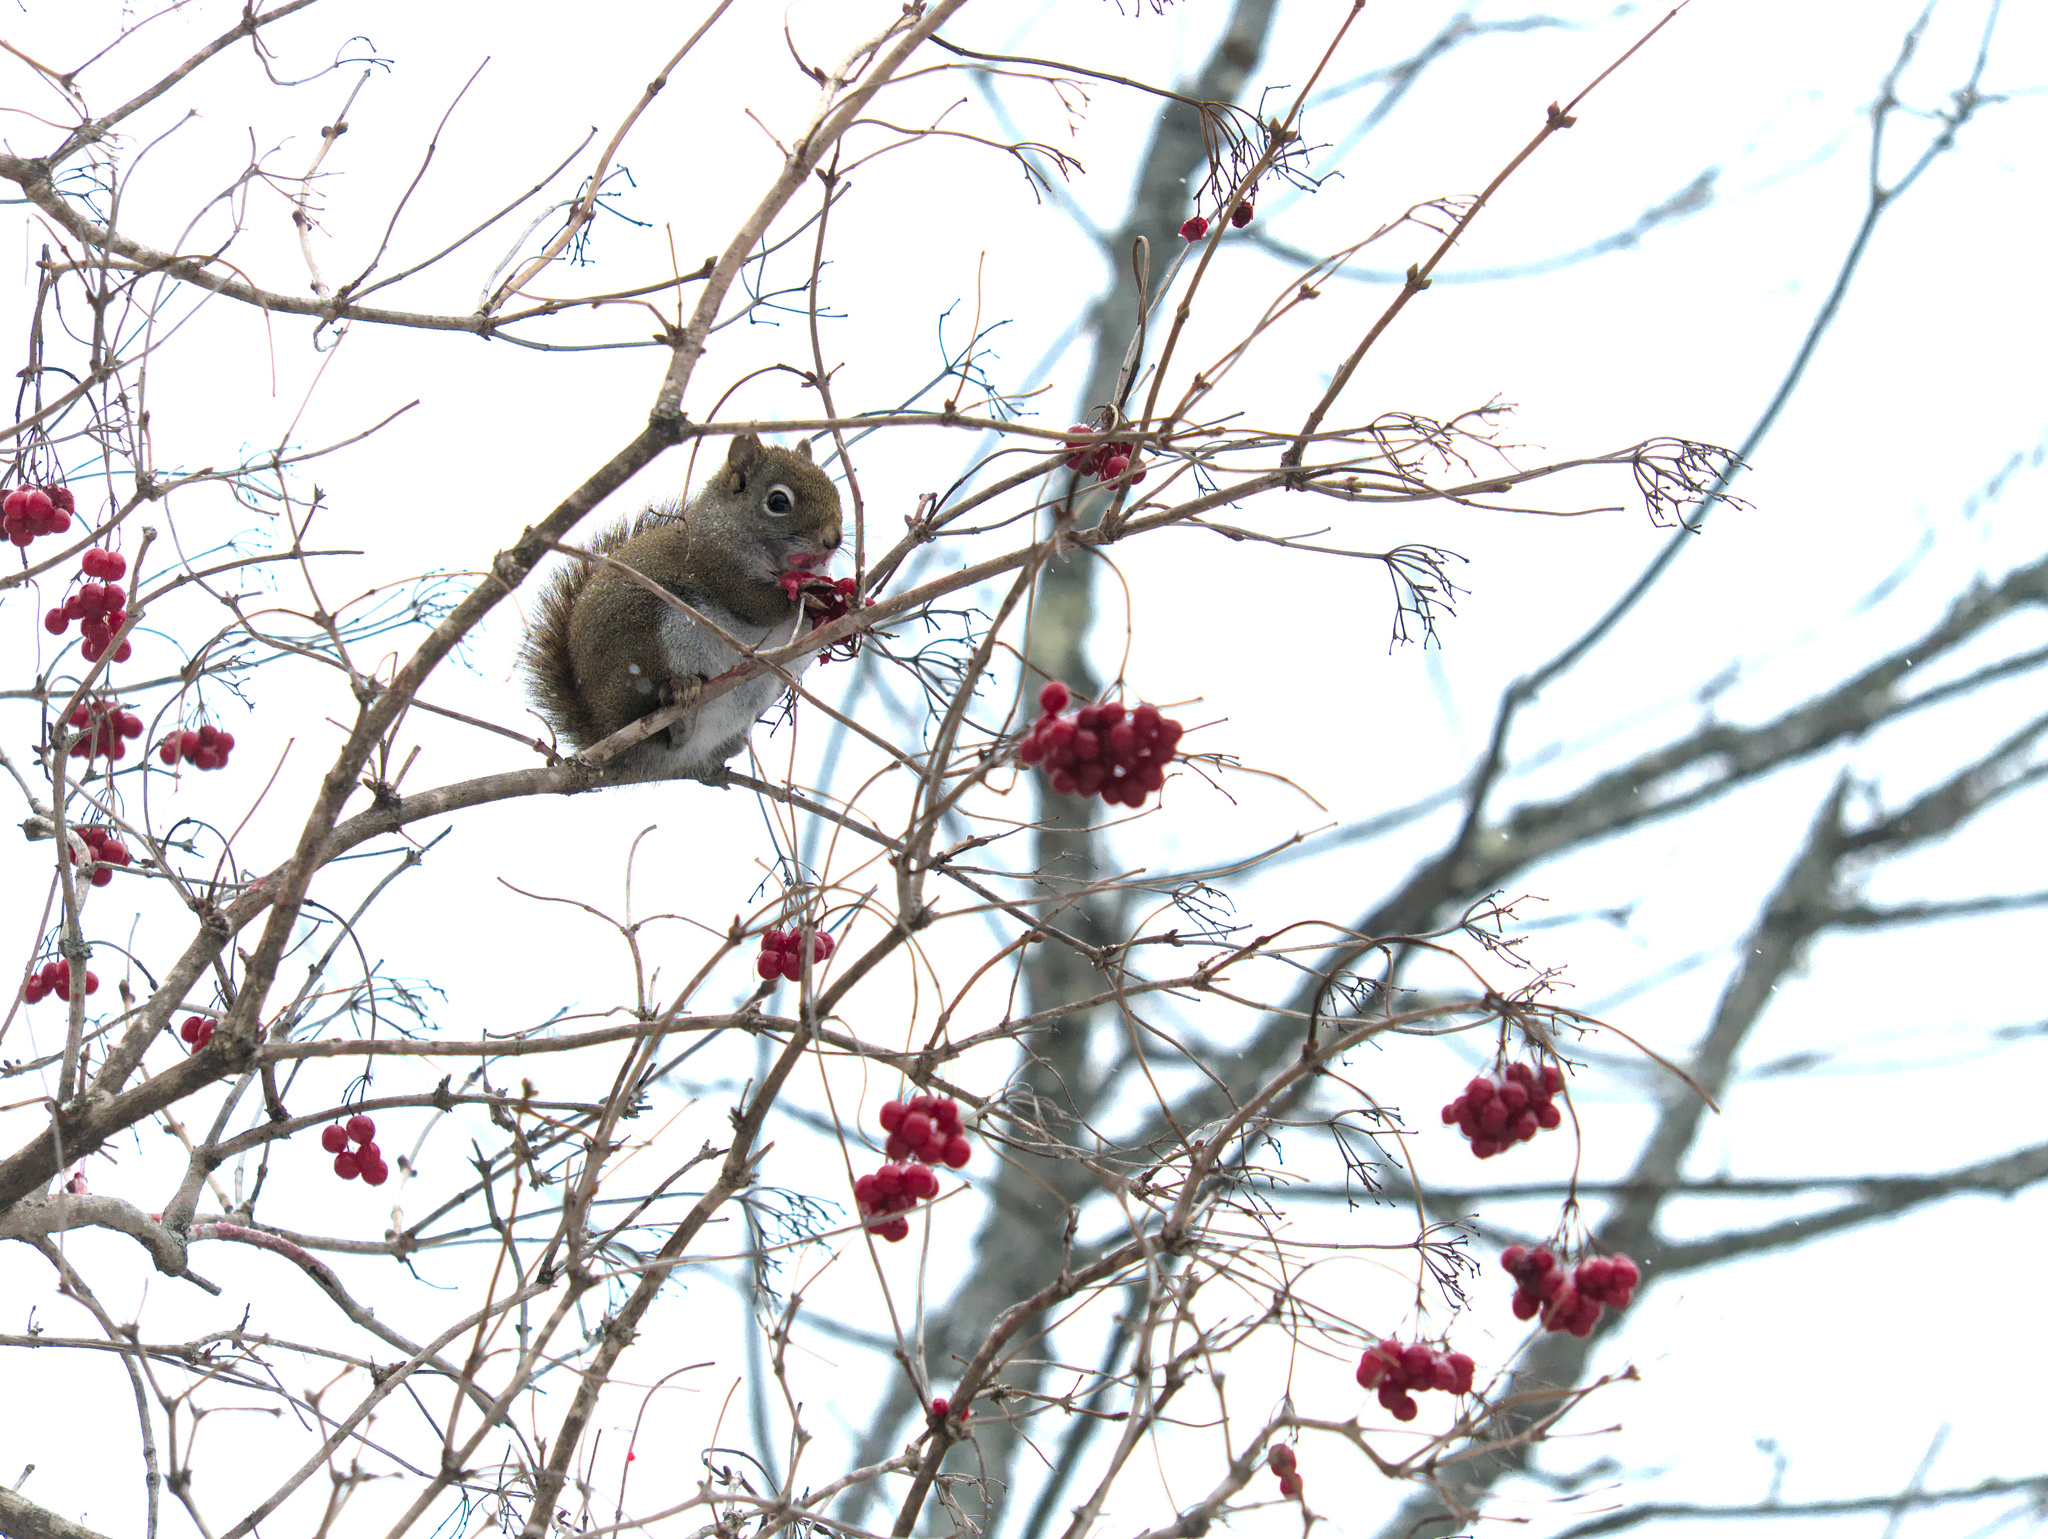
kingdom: Animalia
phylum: Chordata
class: Mammalia
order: Rodentia
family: Sciuridae
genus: Tamiasciurus
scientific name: Tamiasciurus hudsonicus
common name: Red squirrel
